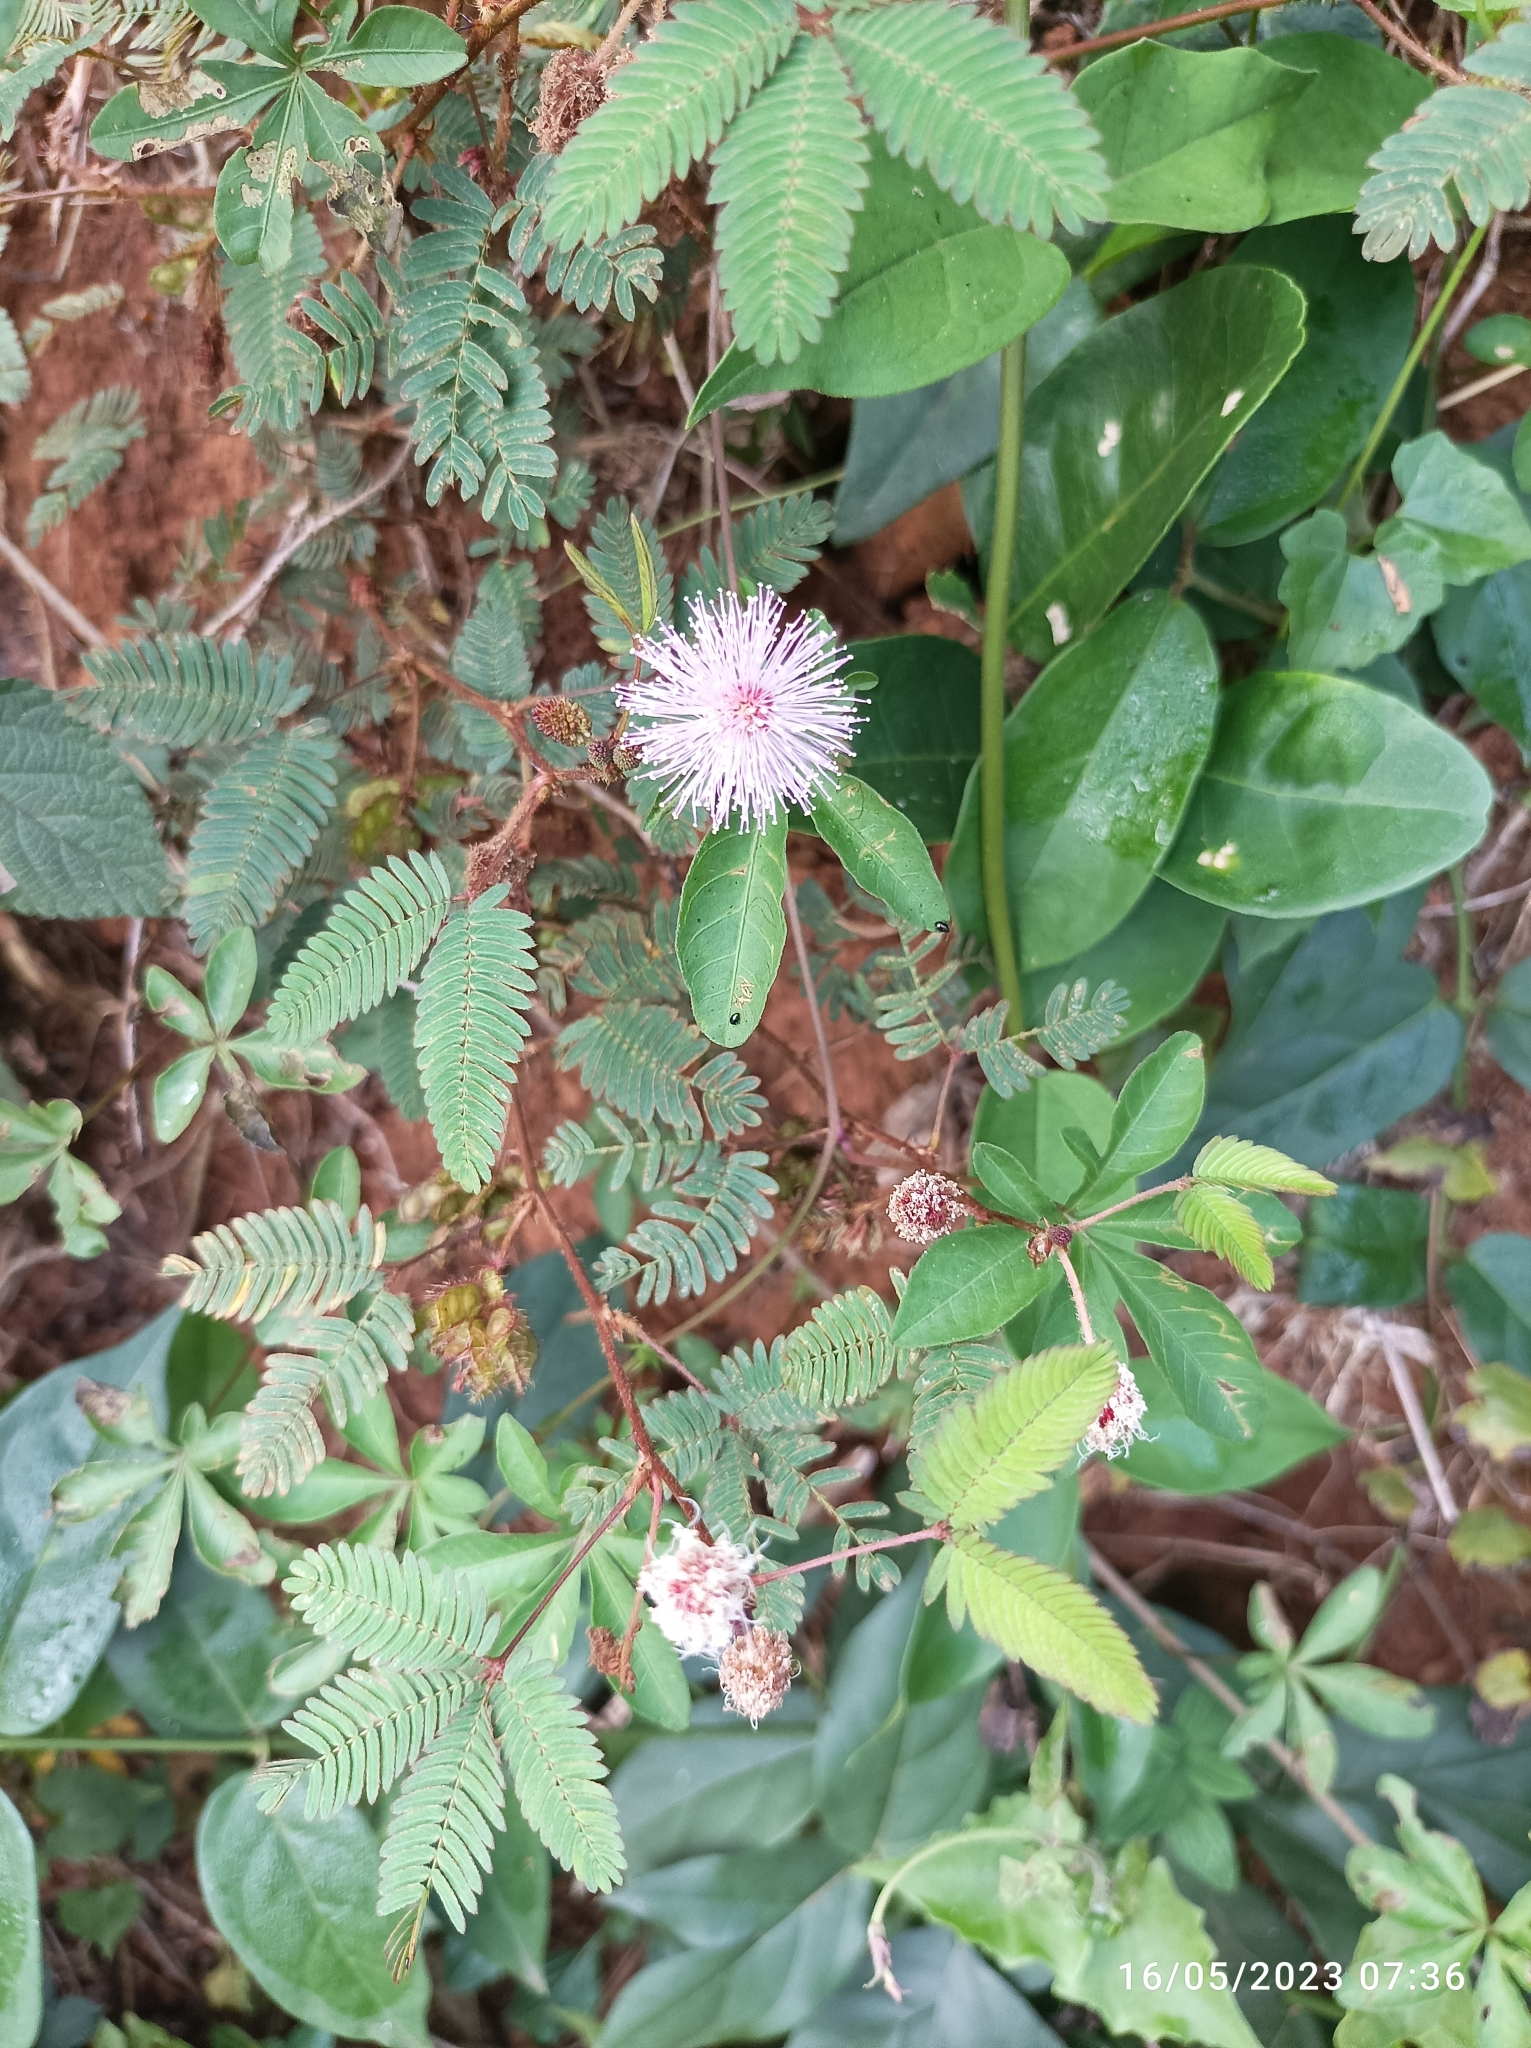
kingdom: Plantae
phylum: Tracheophyta
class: Magnoliopsida
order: Fabales
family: Fabaceae
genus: Mimosa
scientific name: Mimosa pudica
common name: Sensitive plant
